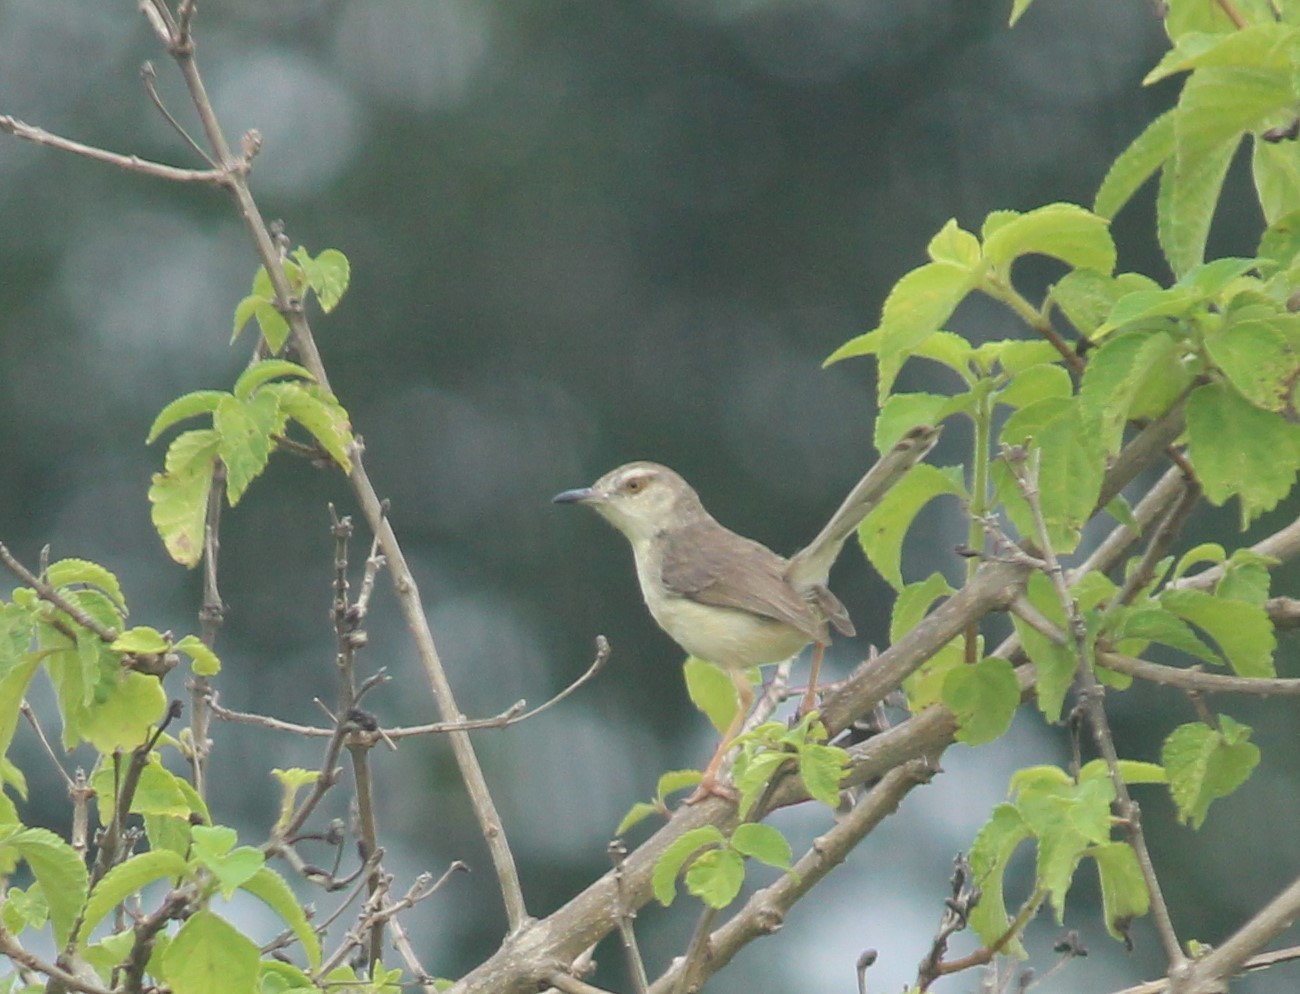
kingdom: Animalia
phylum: Chordata
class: Aves
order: Passeriformes
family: Cisticolidae
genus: Prinia
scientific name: Prinia inornata
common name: Plain prinia
